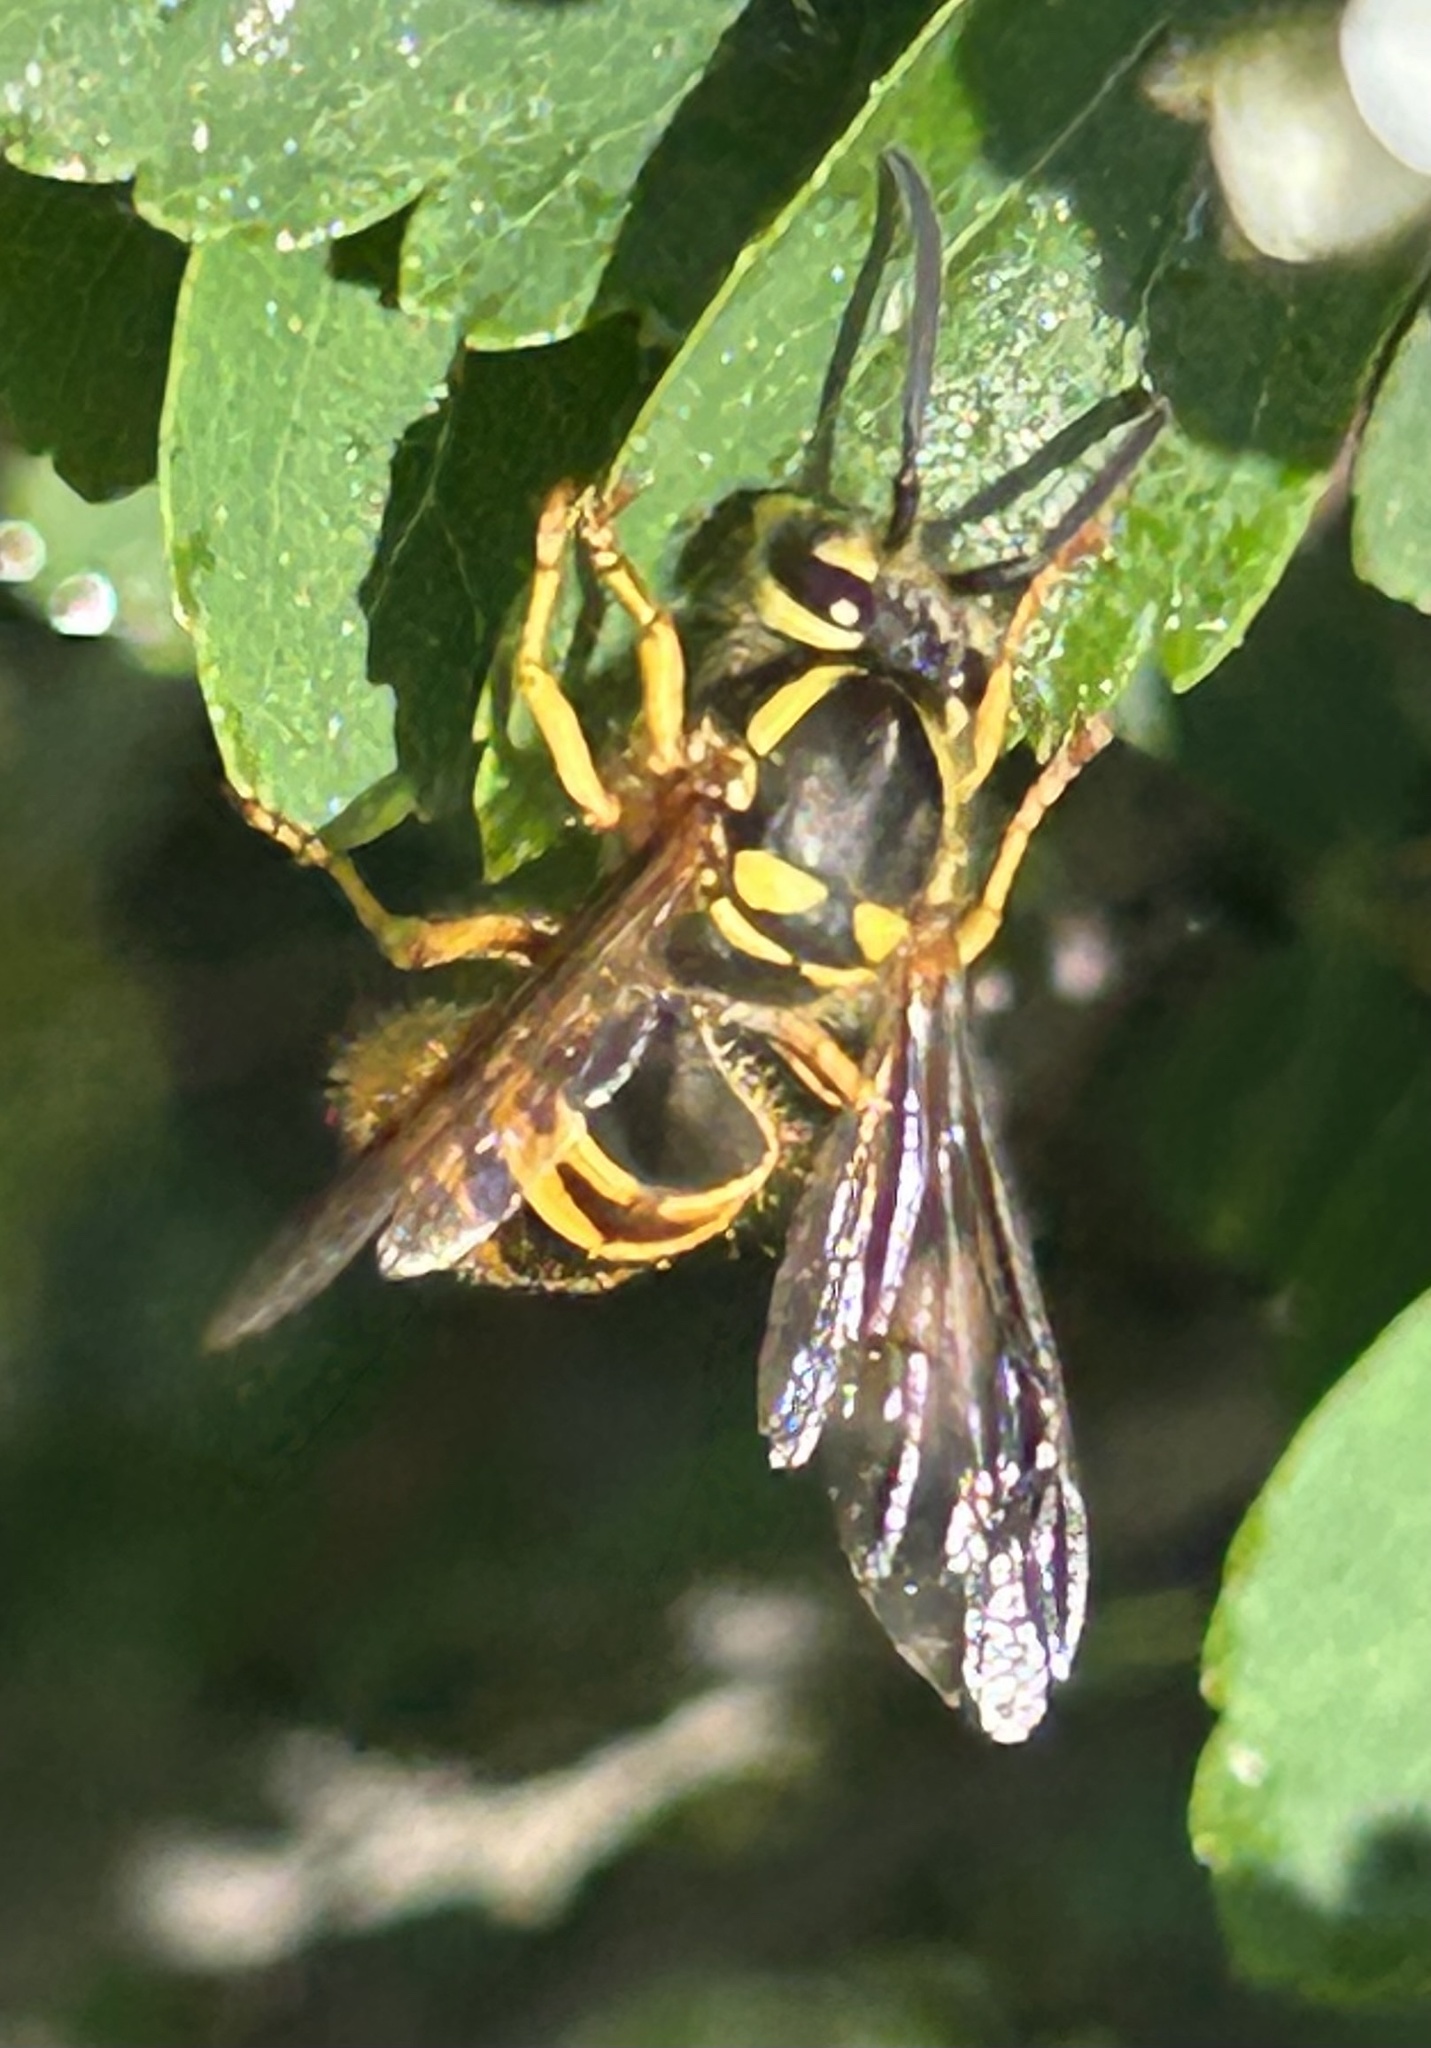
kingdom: Animalia
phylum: Arthropoda
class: Insecta
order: Hymenoptera
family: Vespidae
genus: Vespula
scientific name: Vespula maculifrons
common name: Eastern yellowjacket
